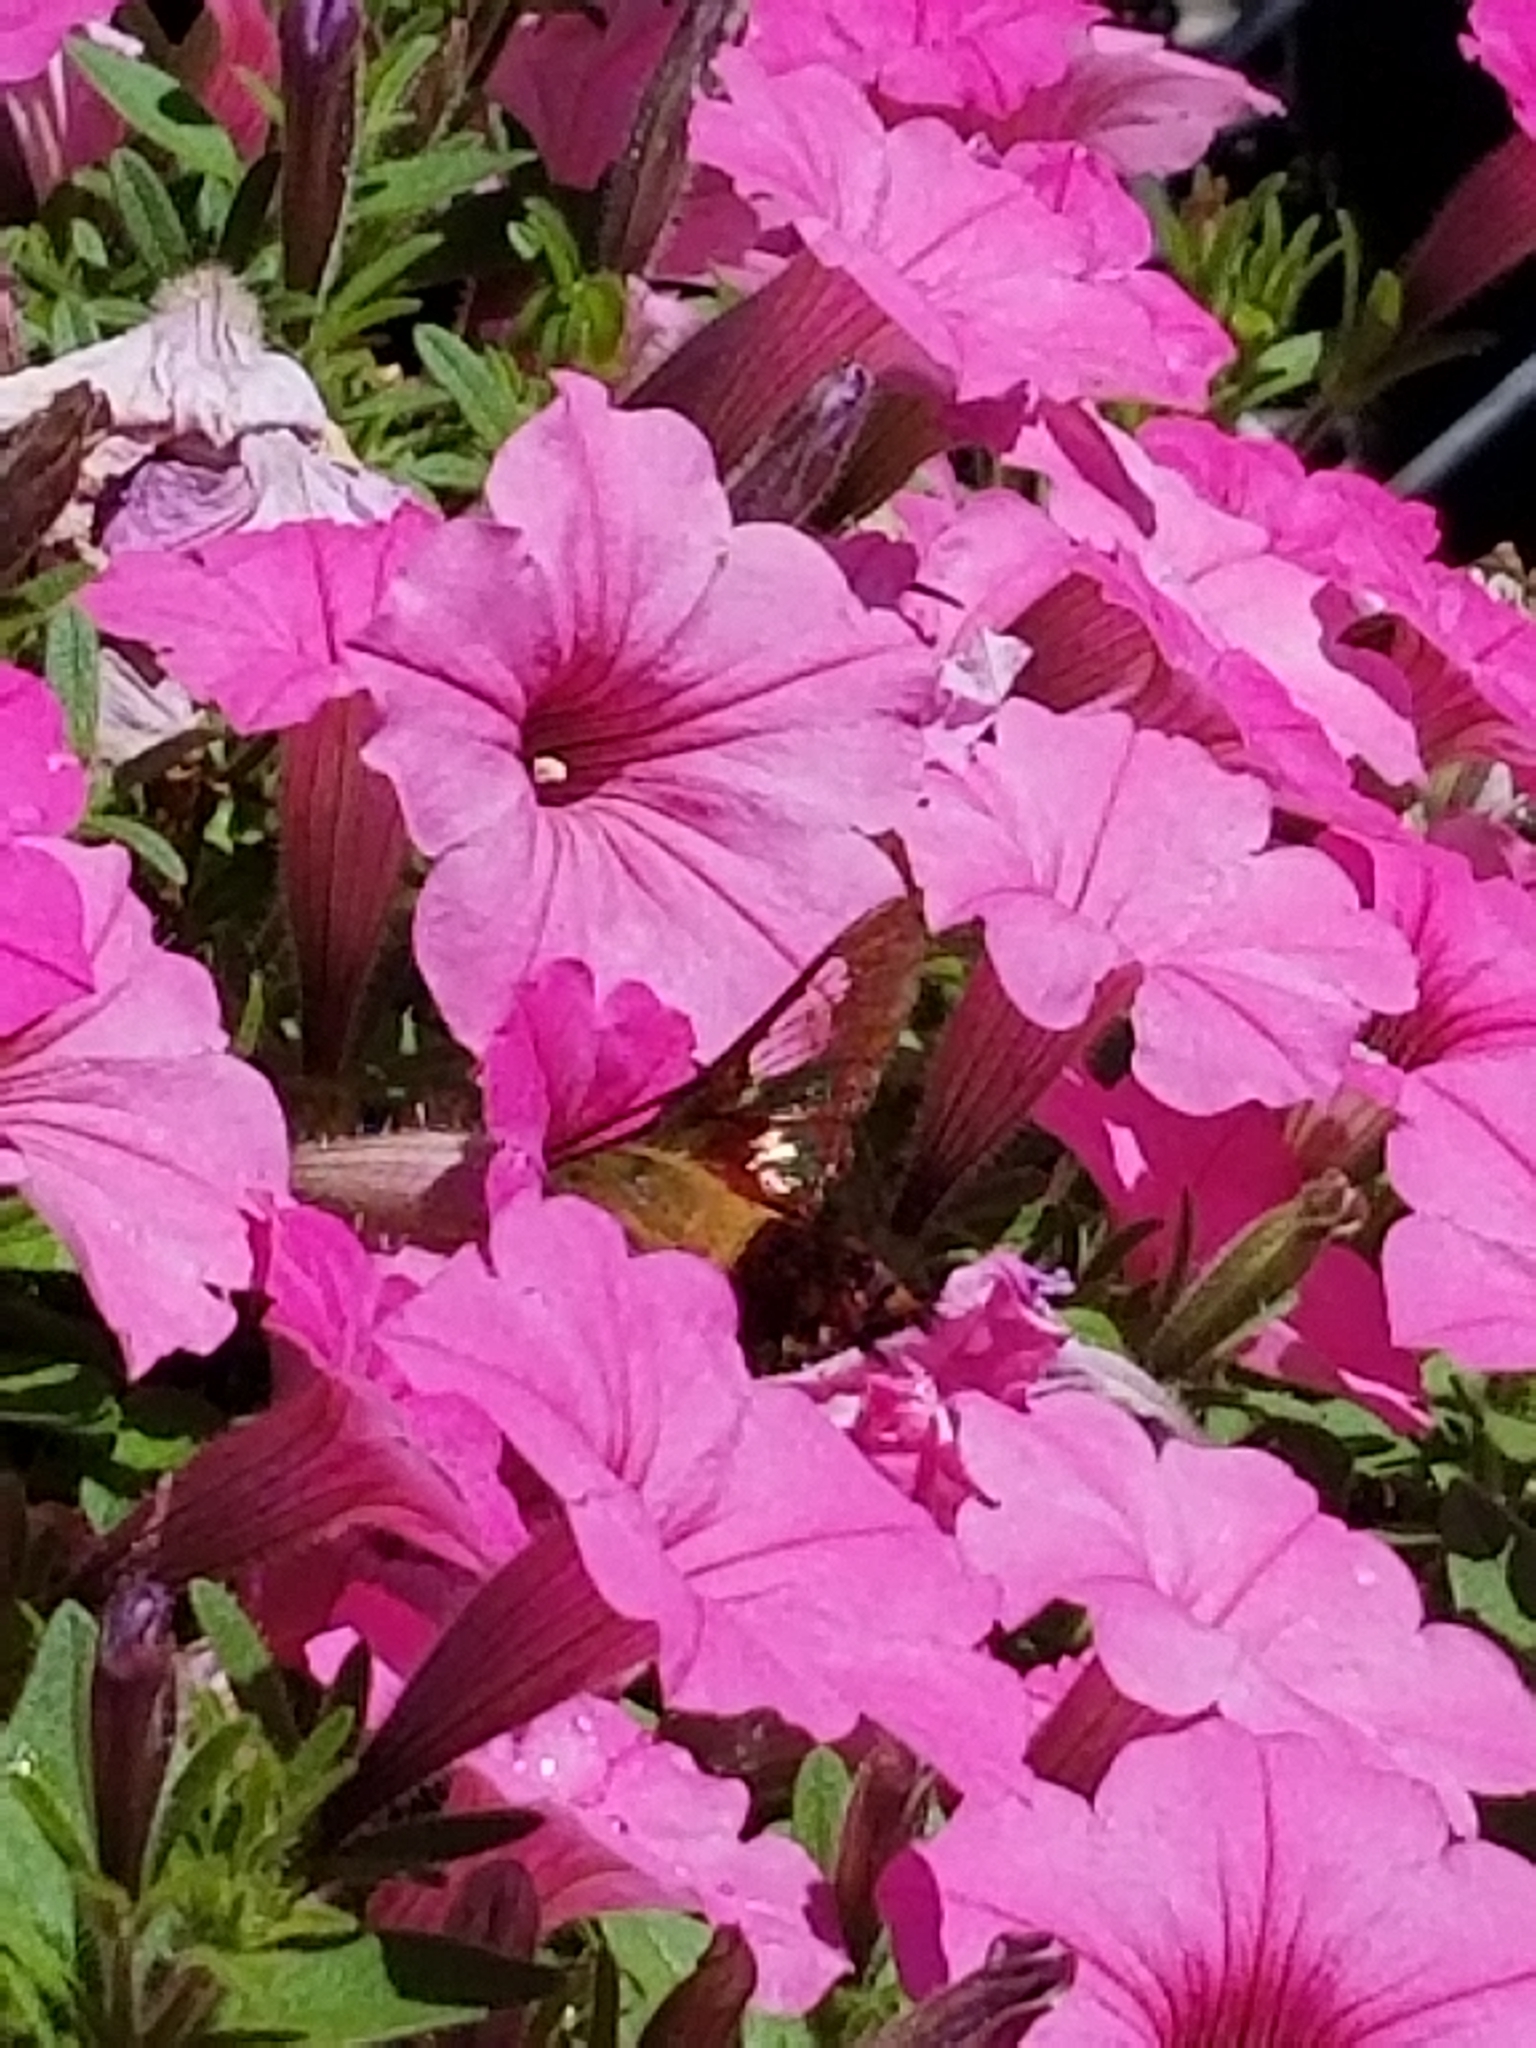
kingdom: Animalia
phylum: Arthropoda
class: Insecta
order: Lepidoptera
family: Sphingidae
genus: Hemaris
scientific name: Hemaris thysbe
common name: Common clear-wing
